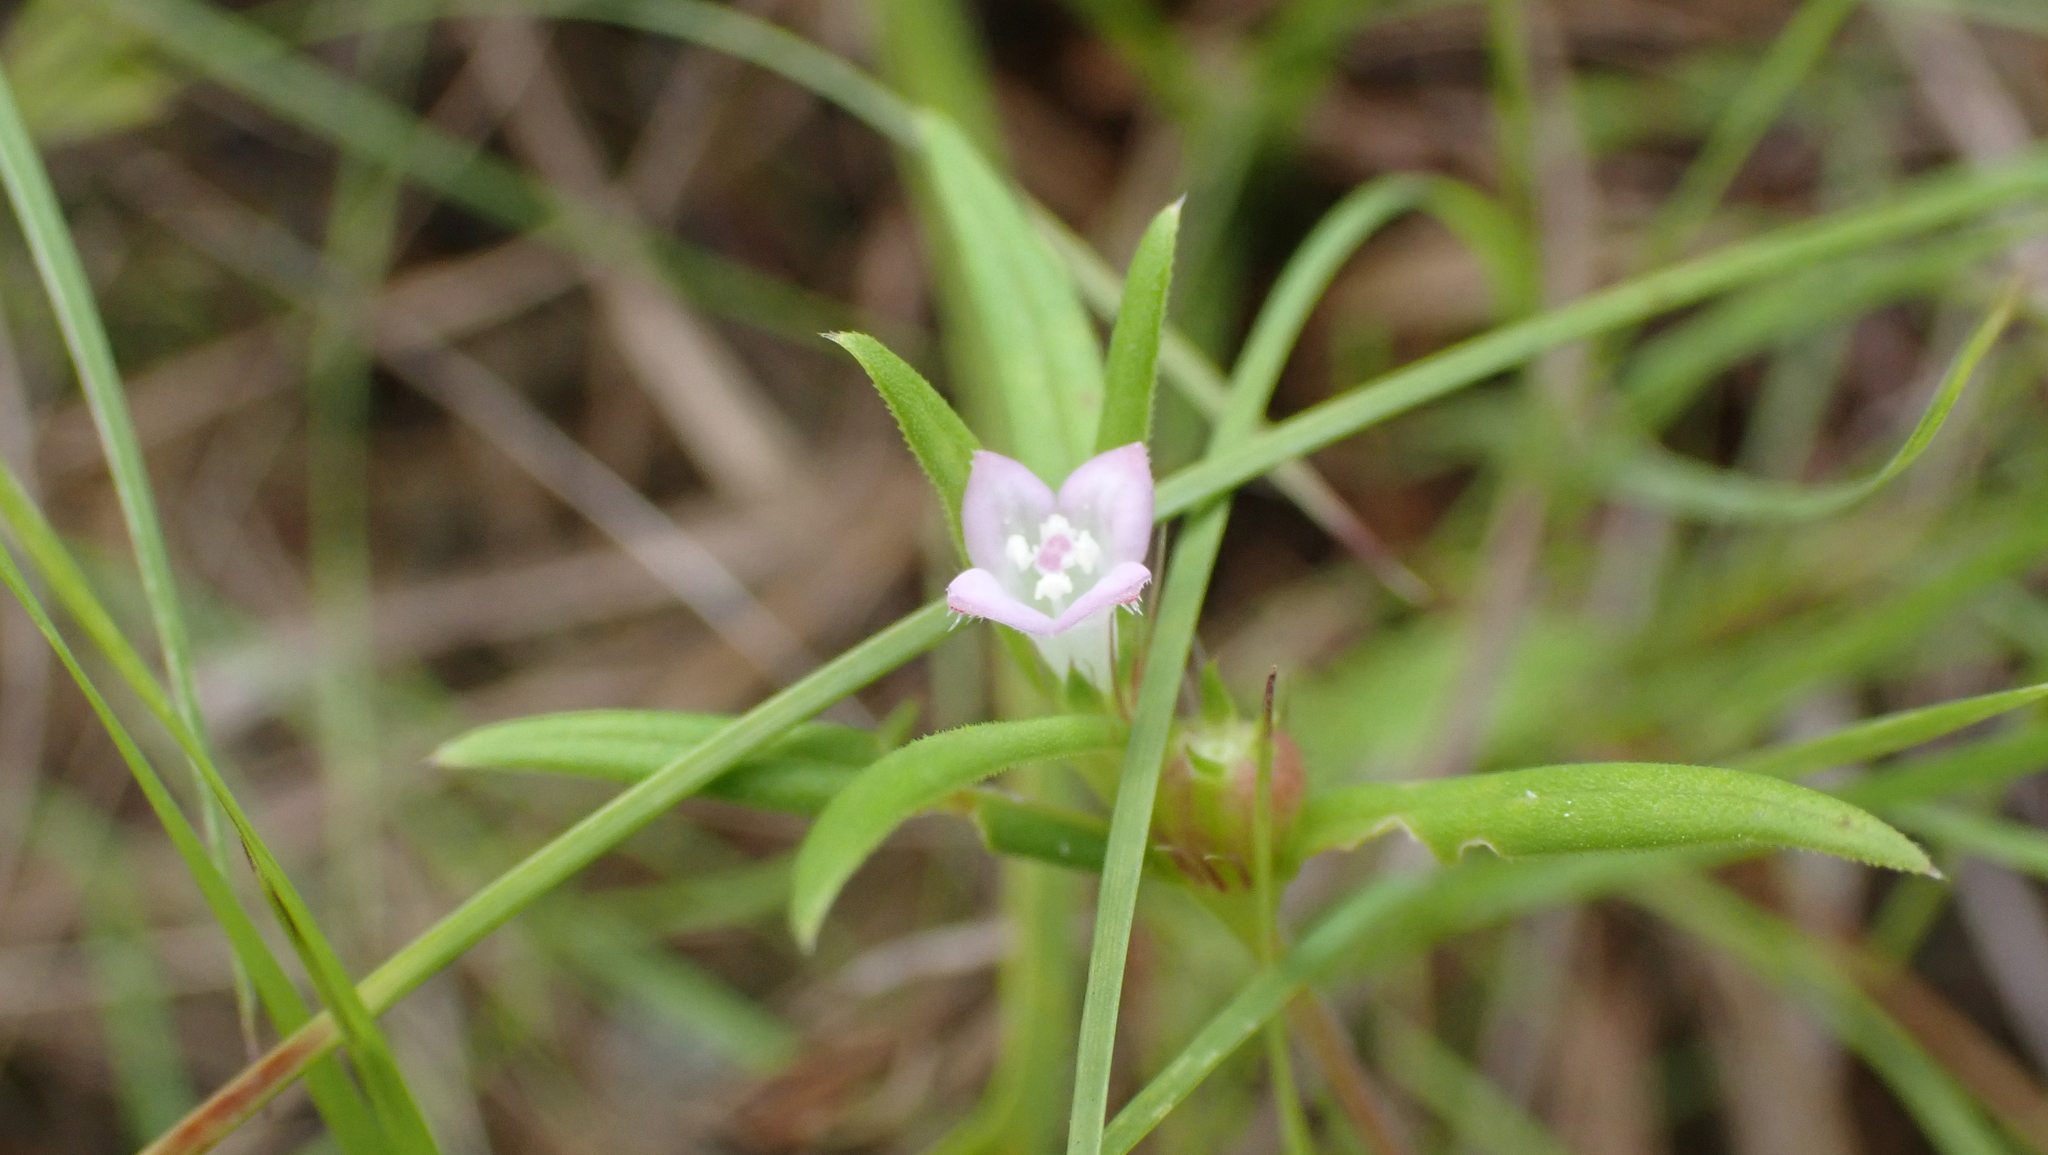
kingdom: Plantae
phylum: Tracheophyta
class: Magnoliopsida
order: Gentianales
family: Rubiaceae
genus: Hexasepalum
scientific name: Hexasepalum teres
